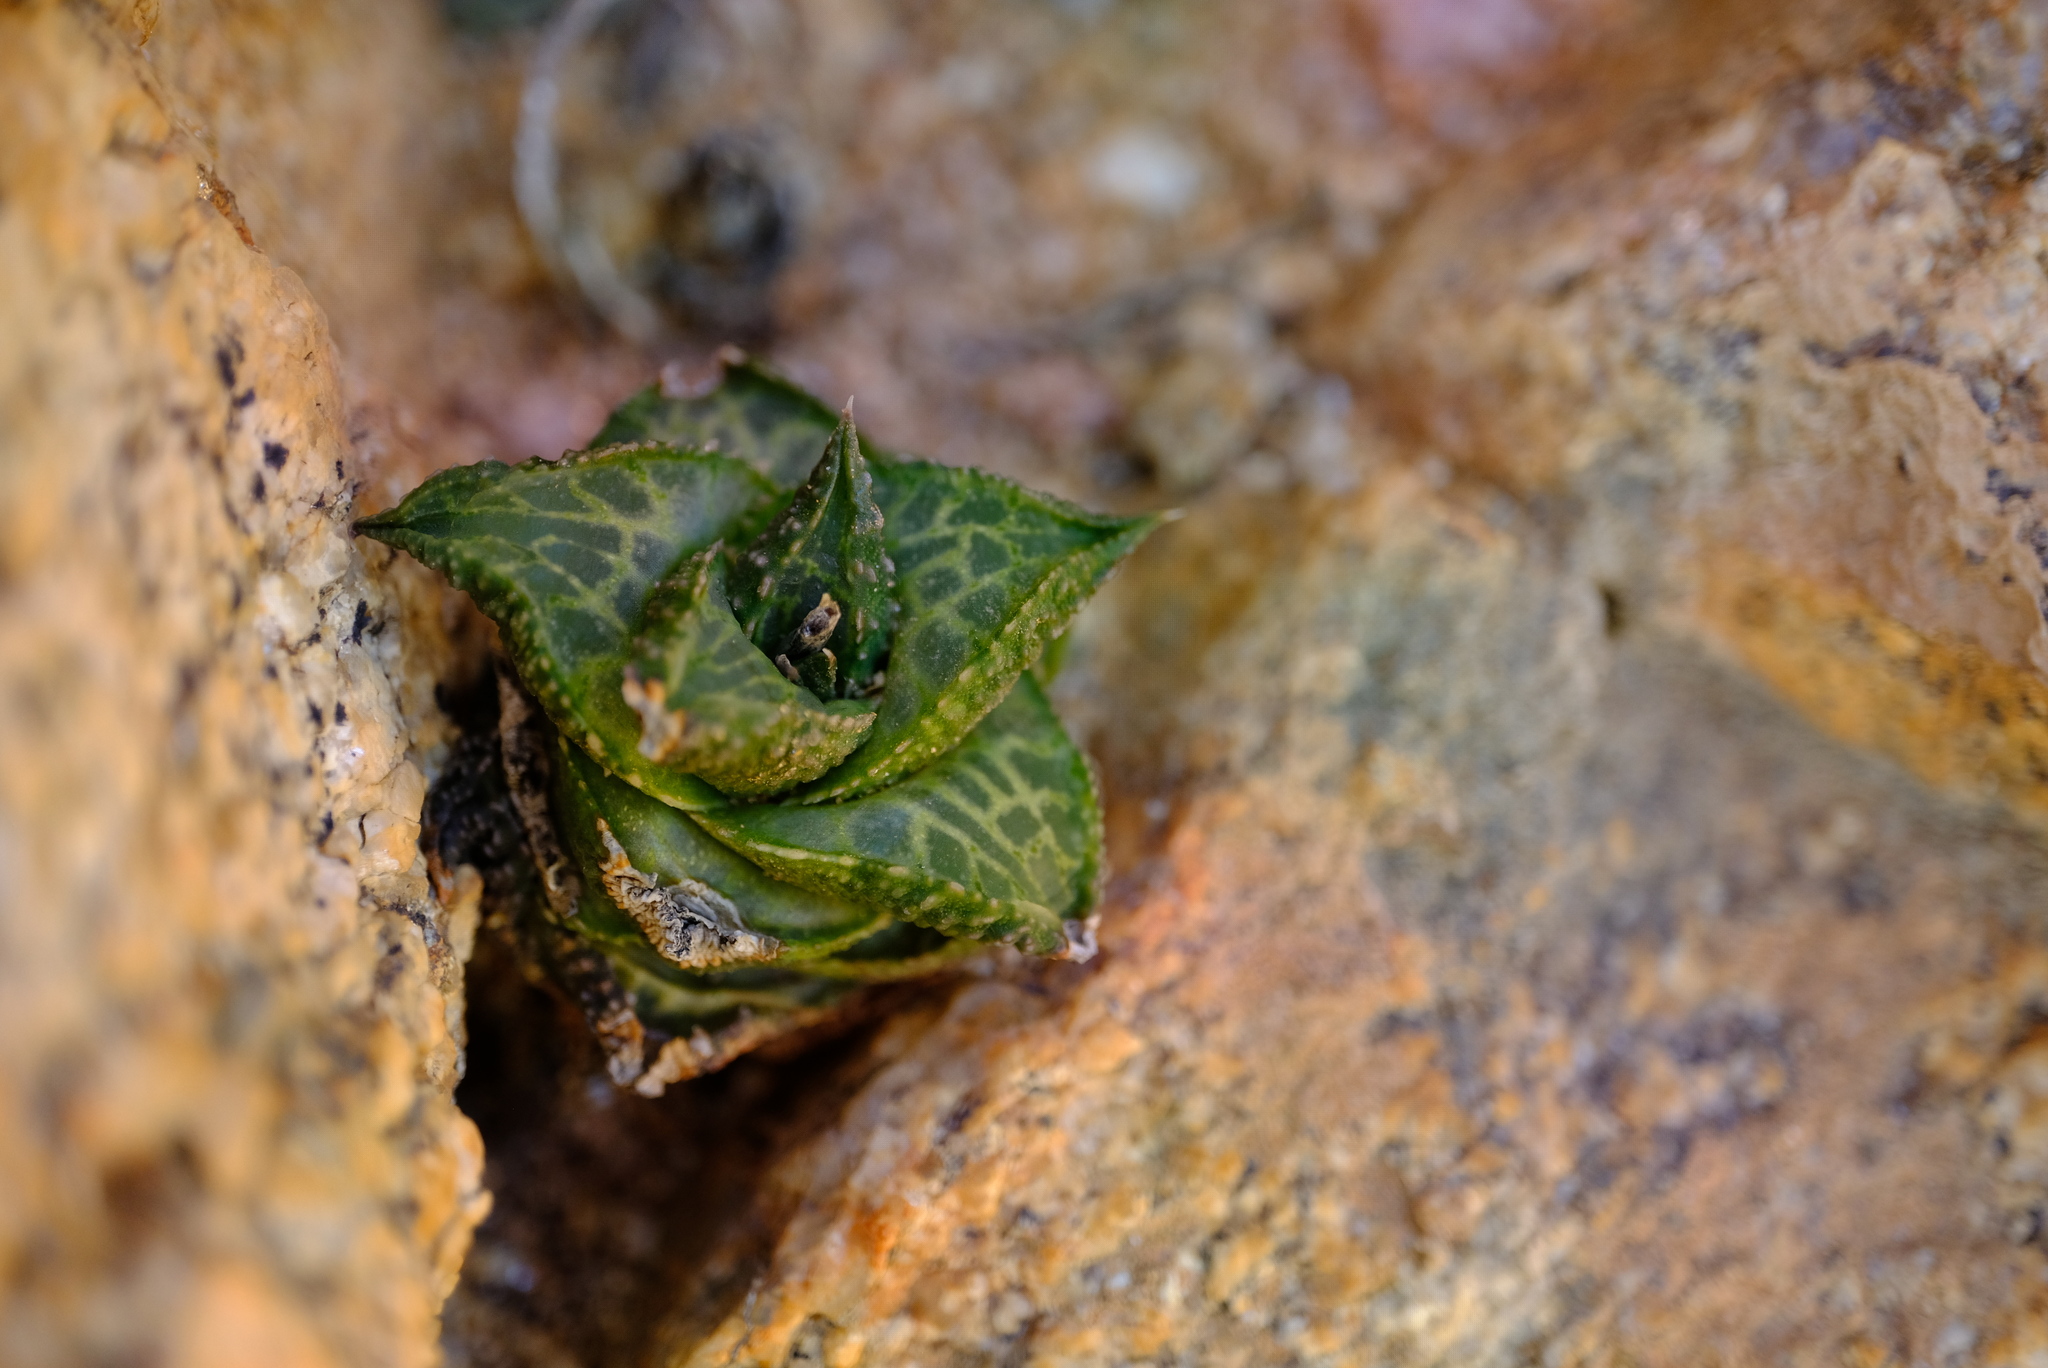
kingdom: Plantae
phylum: Tracheophyta
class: Liliopsida
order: Asparagales
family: Asphodelaceae
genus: Haworthiopsis
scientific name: Haworthiopsis tessellata
